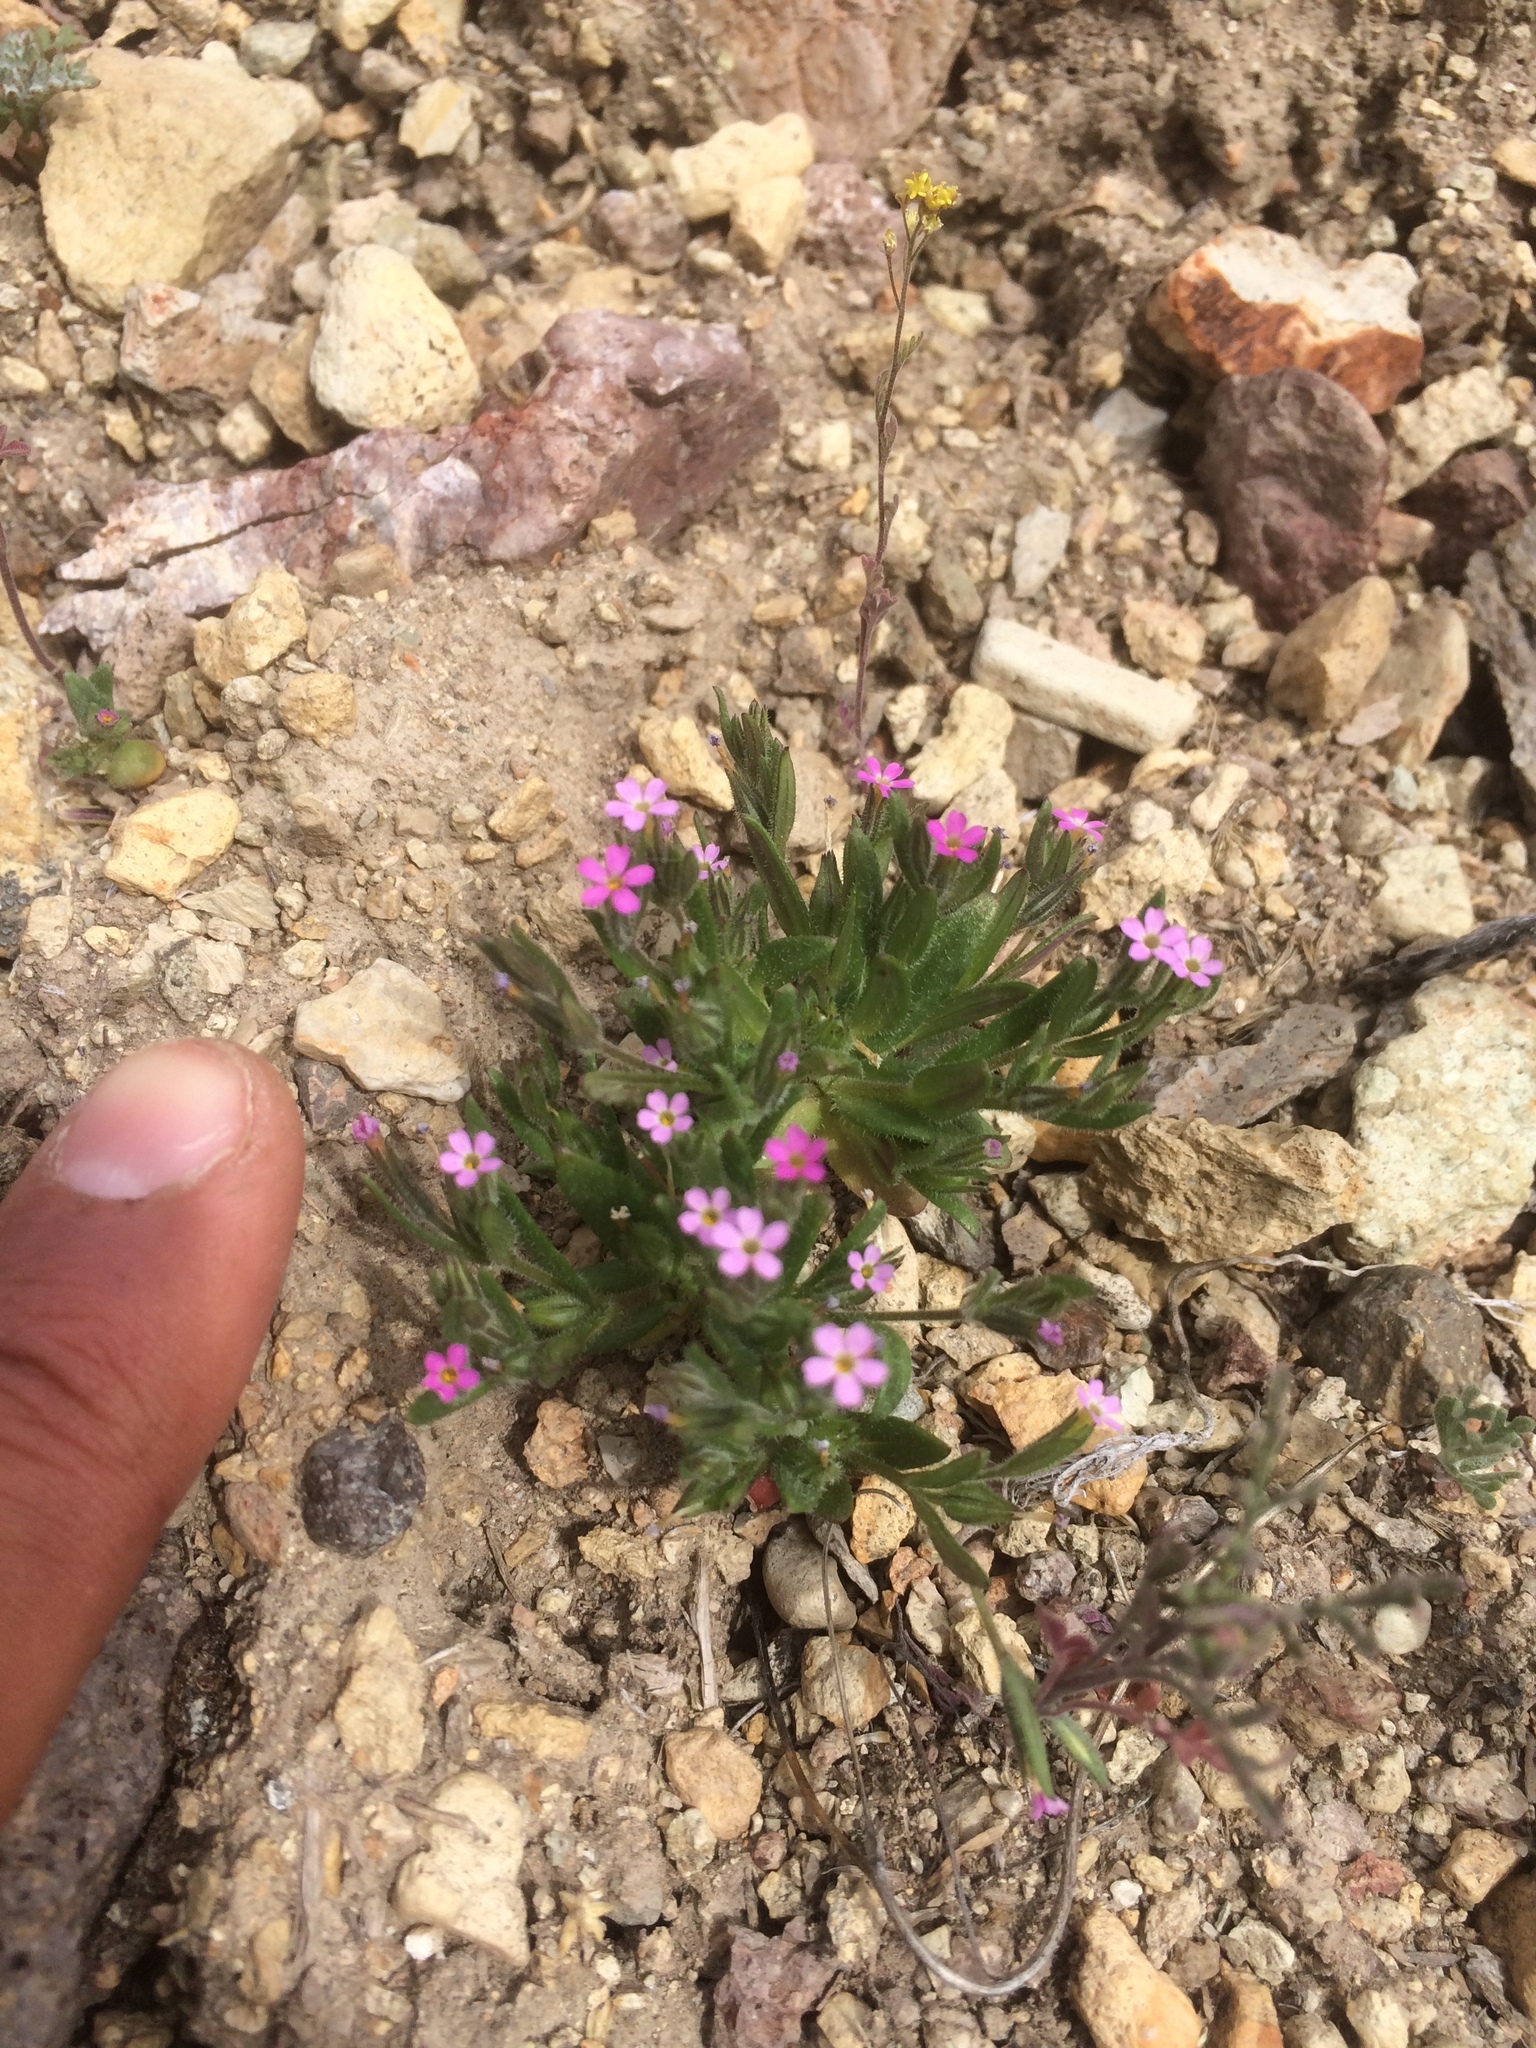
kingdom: Plantae
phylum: Tracheophyta
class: Magnoliopsida
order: Ericales
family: Polemoniaceae
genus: Phlox
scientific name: Phlox gracilis
